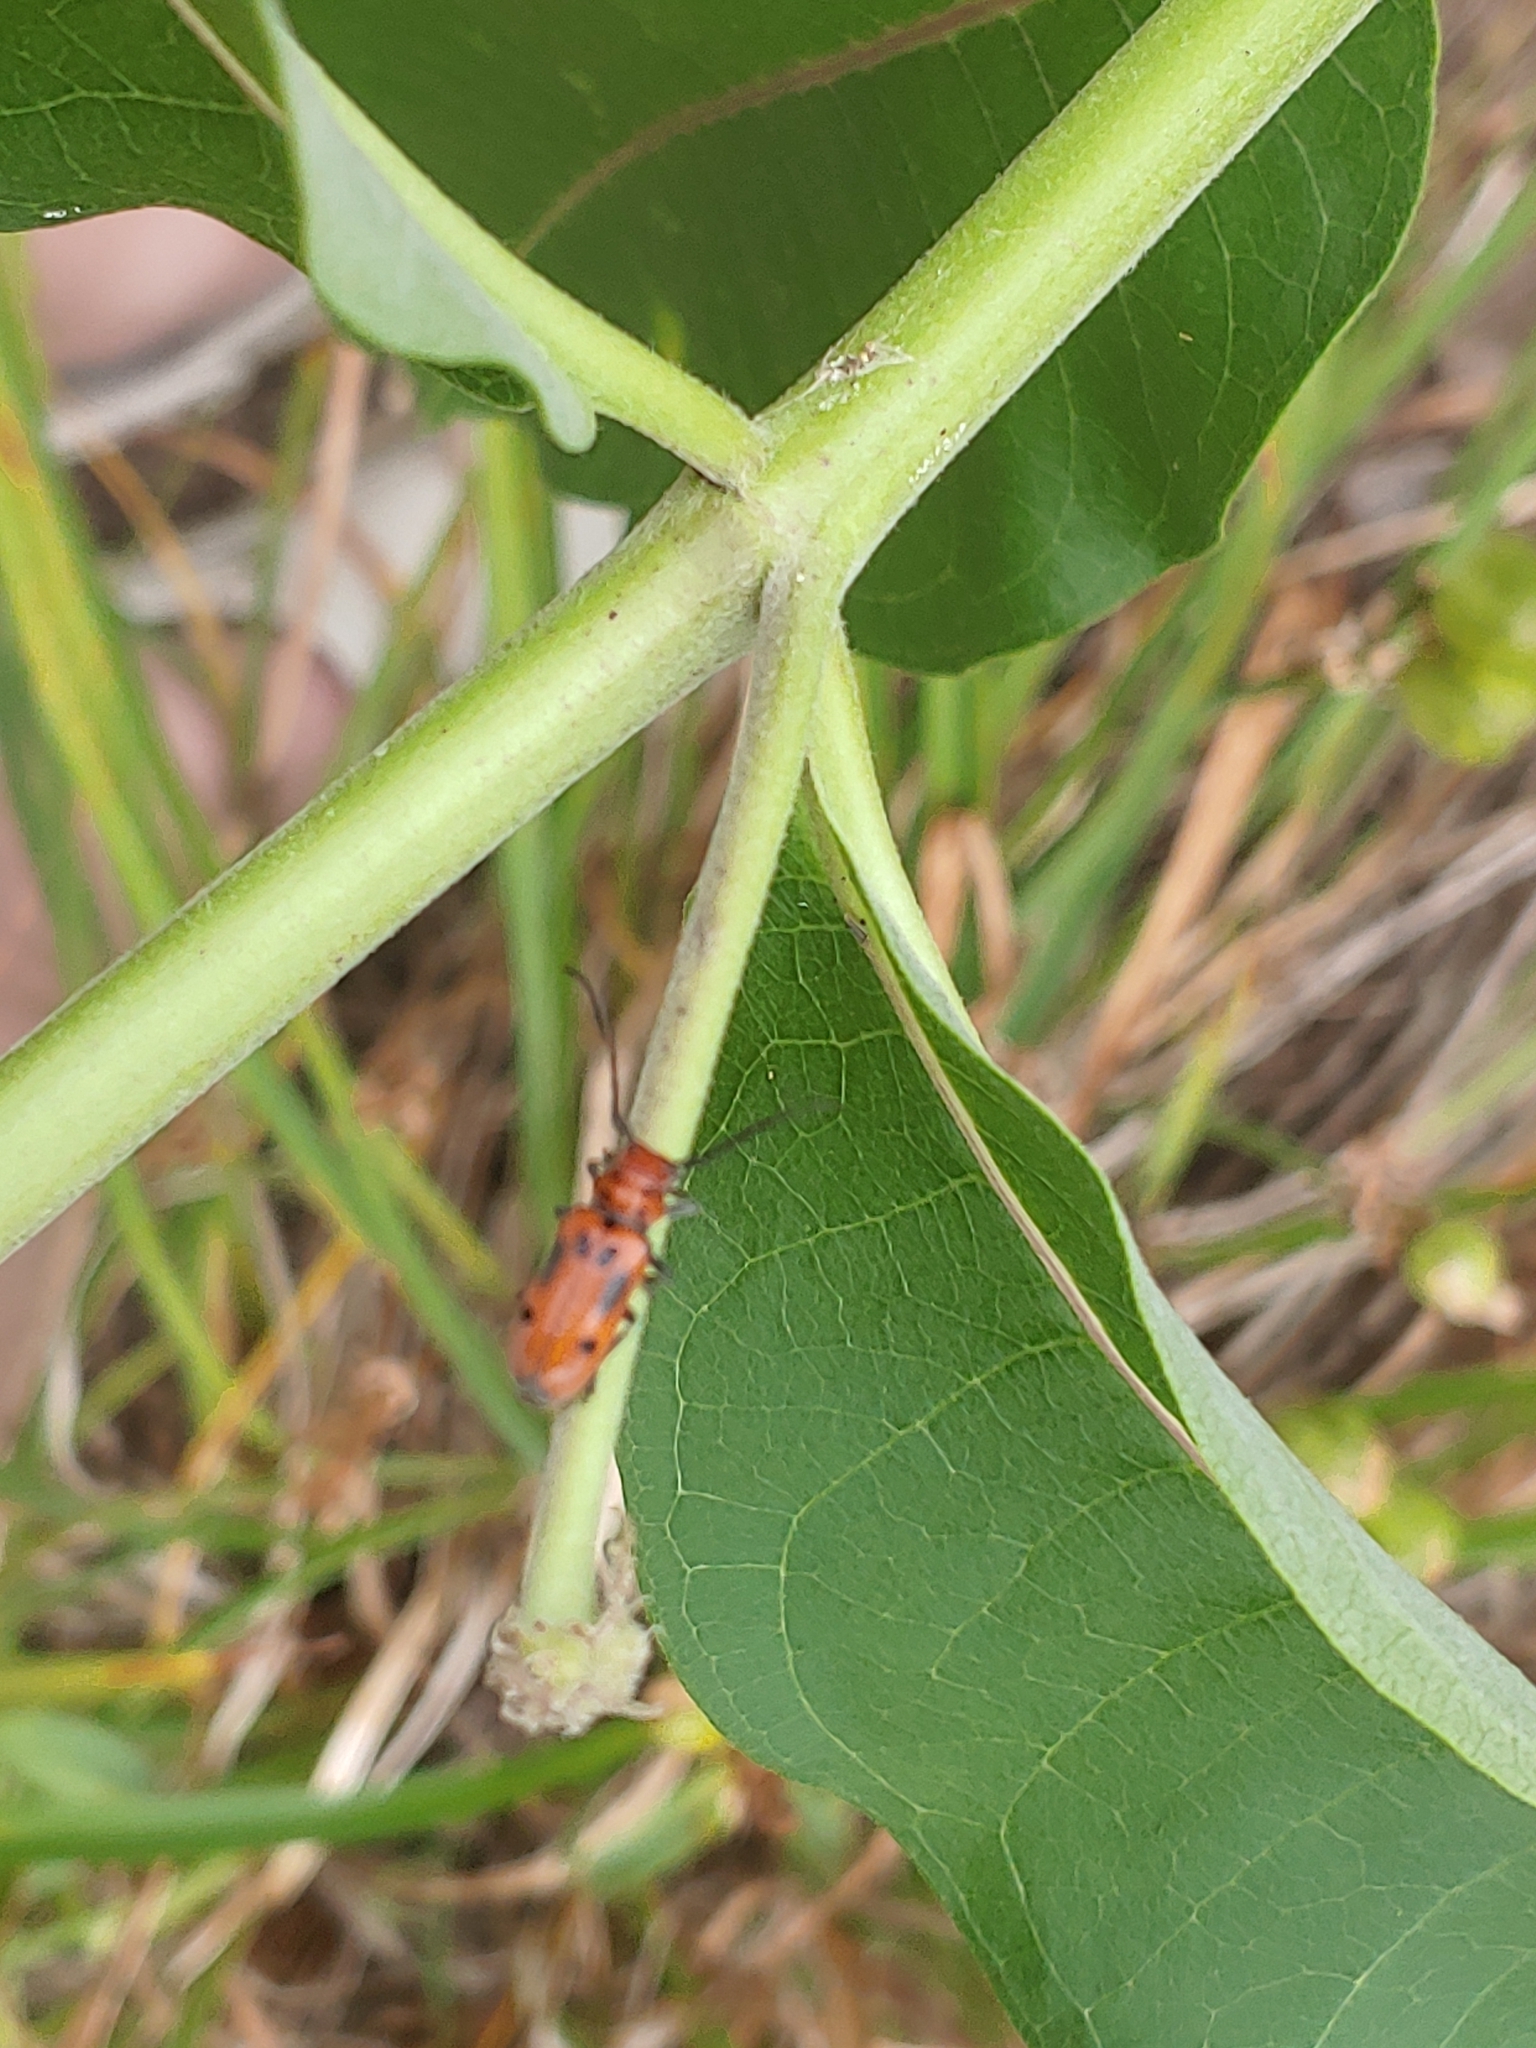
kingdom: Animalia
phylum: Arthropoda
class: Insecta
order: Coleoptera
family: Cerambycidae
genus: Tetraopes
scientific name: Tetraopes tetrophthalmus
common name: Red milkweed beetle
